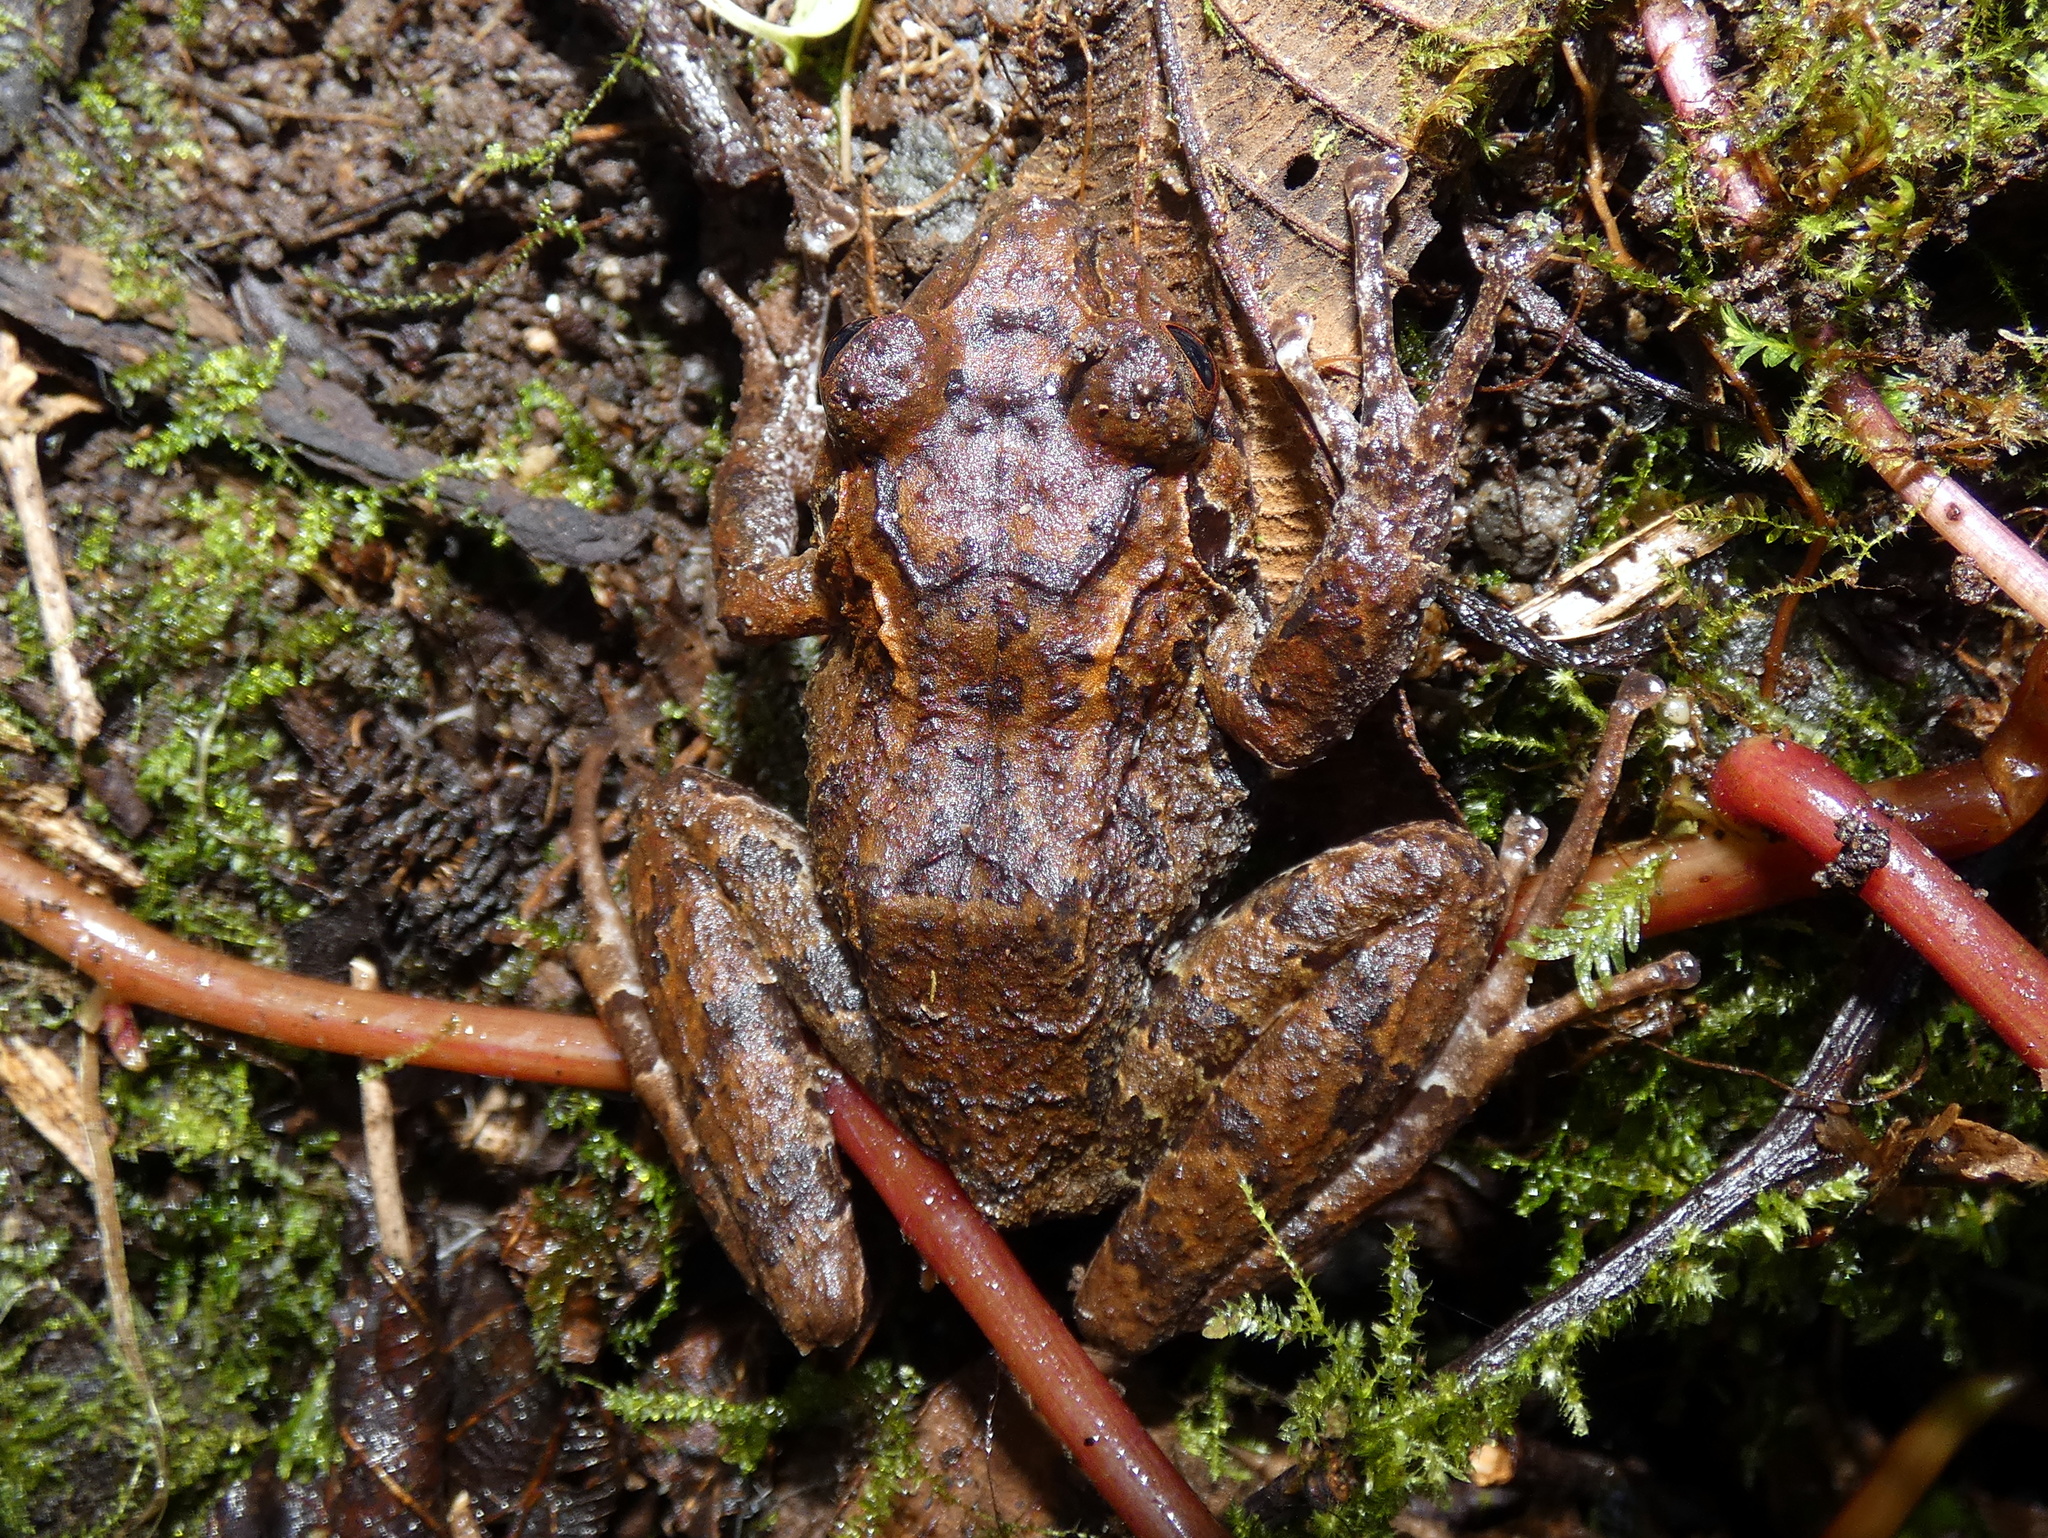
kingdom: Animalia
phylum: Chordata
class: Amphibia
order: Anura
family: Craugastoridae
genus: Craugastor
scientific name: Craugastor melanostictus
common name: Black-lined robber frog
